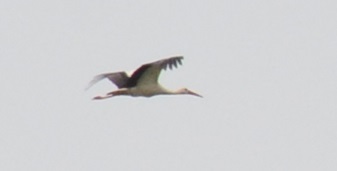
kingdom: Animalia
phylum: Chordata
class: Aves
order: Ciconiiformes
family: Ciconiidae
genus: Ciconia
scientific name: Ciconia ciconia
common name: White stork
